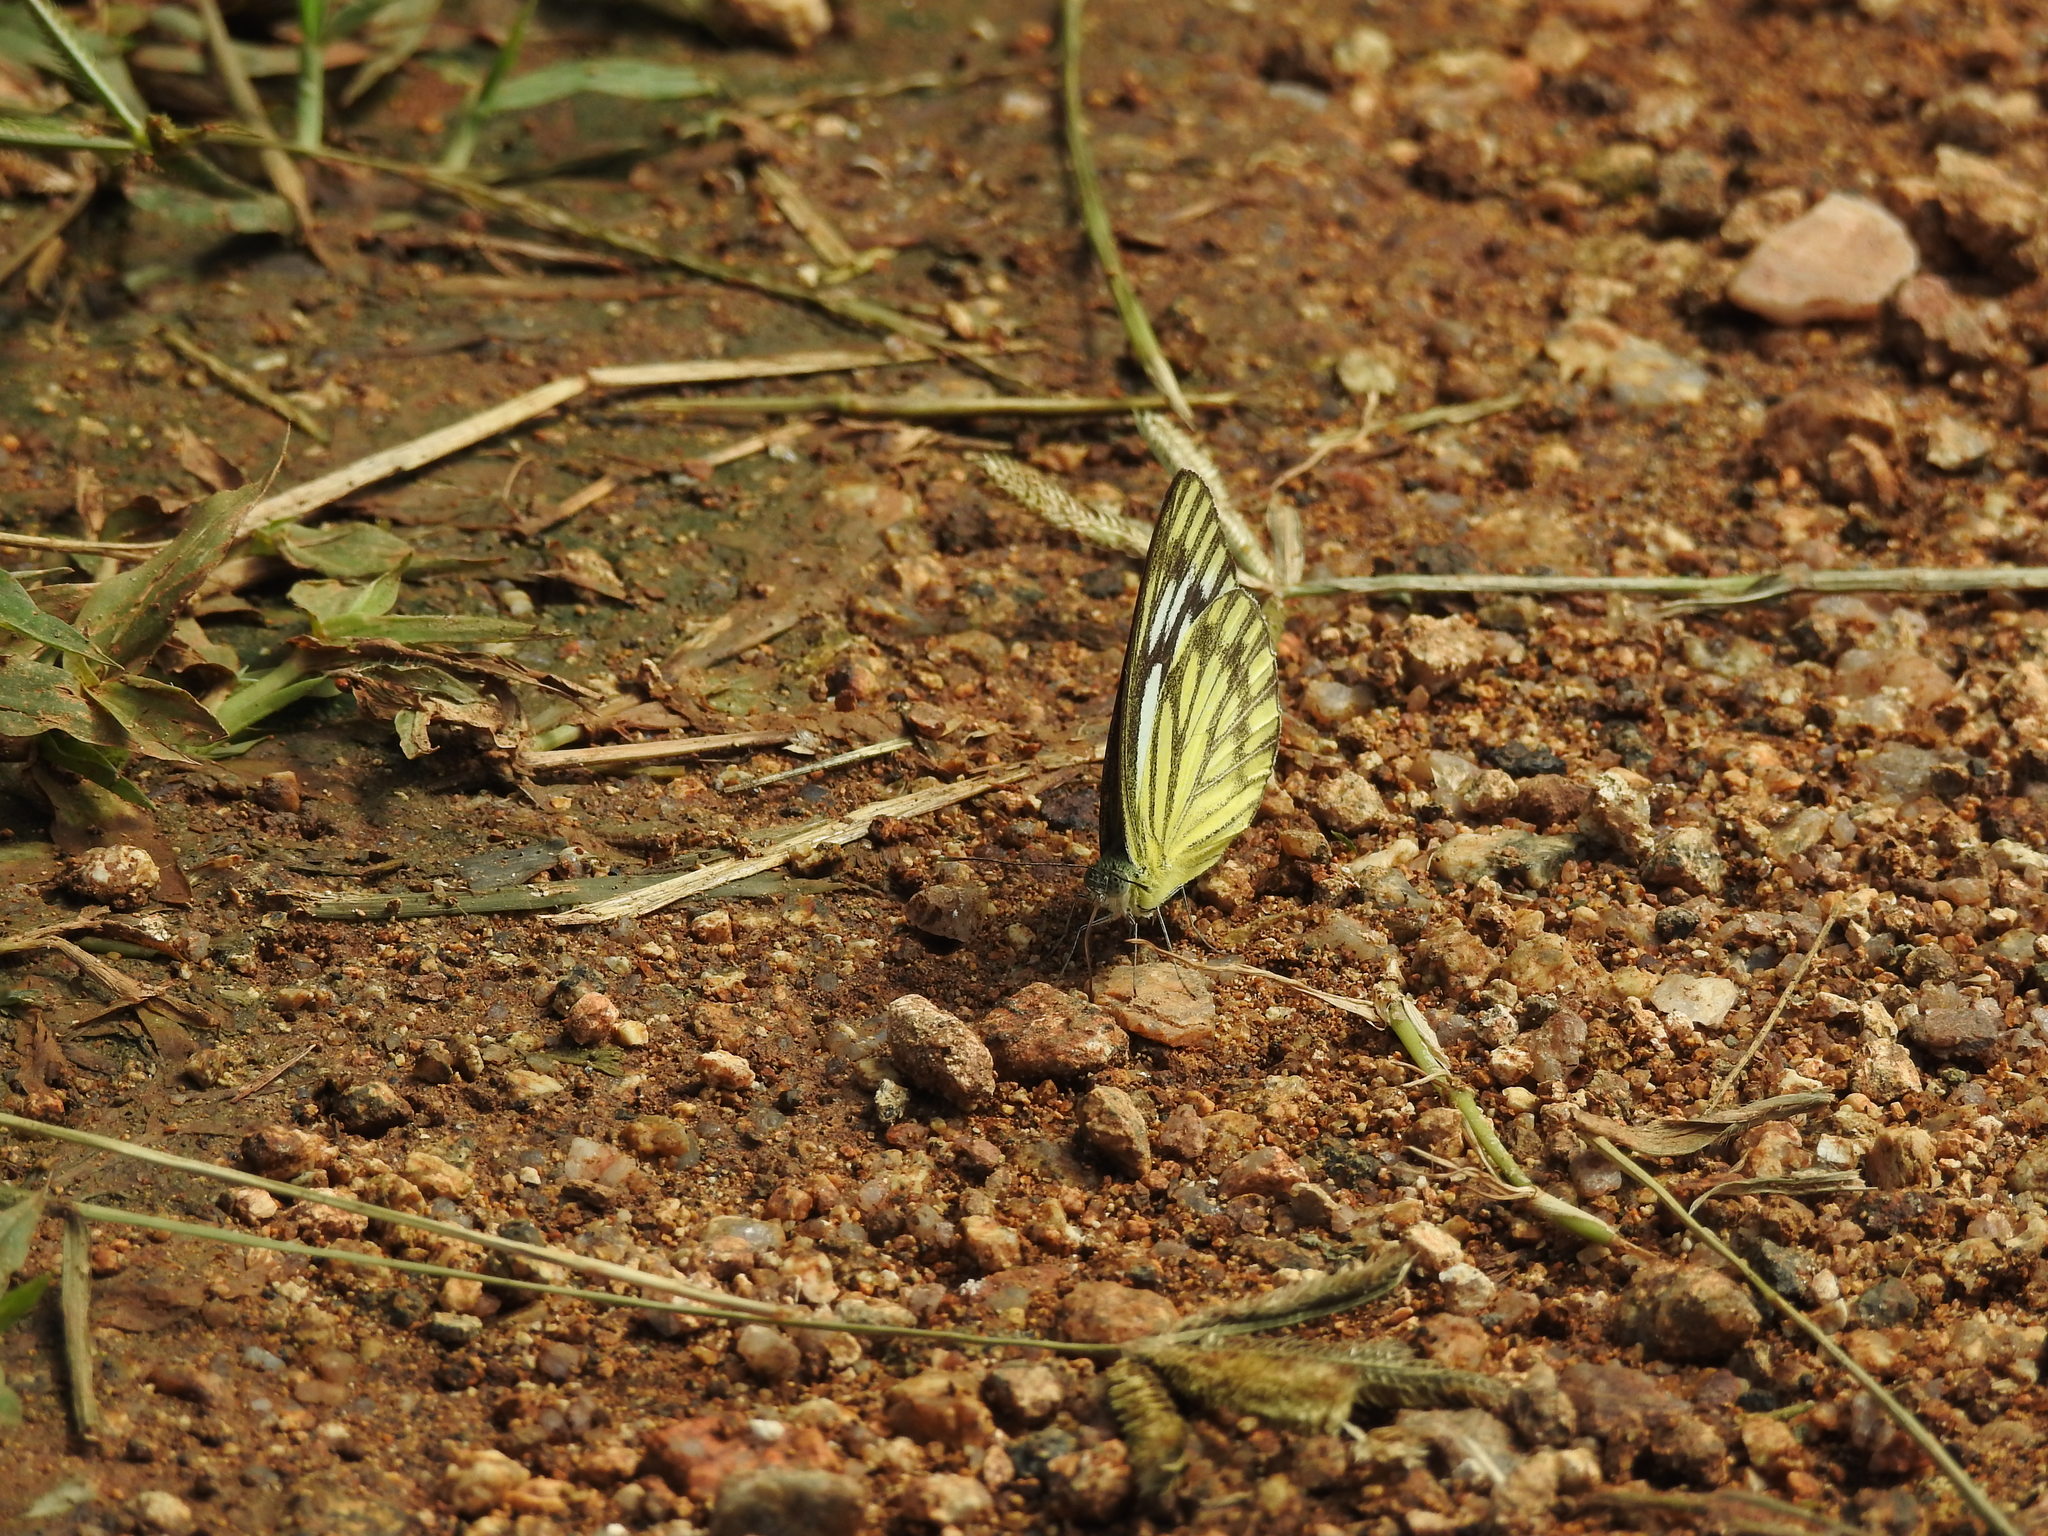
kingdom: Animalia
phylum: Arthropoda
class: Insecta
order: Lepidoptera
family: Pieridae
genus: Cepora
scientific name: Cepora nerissa
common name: Common gull
